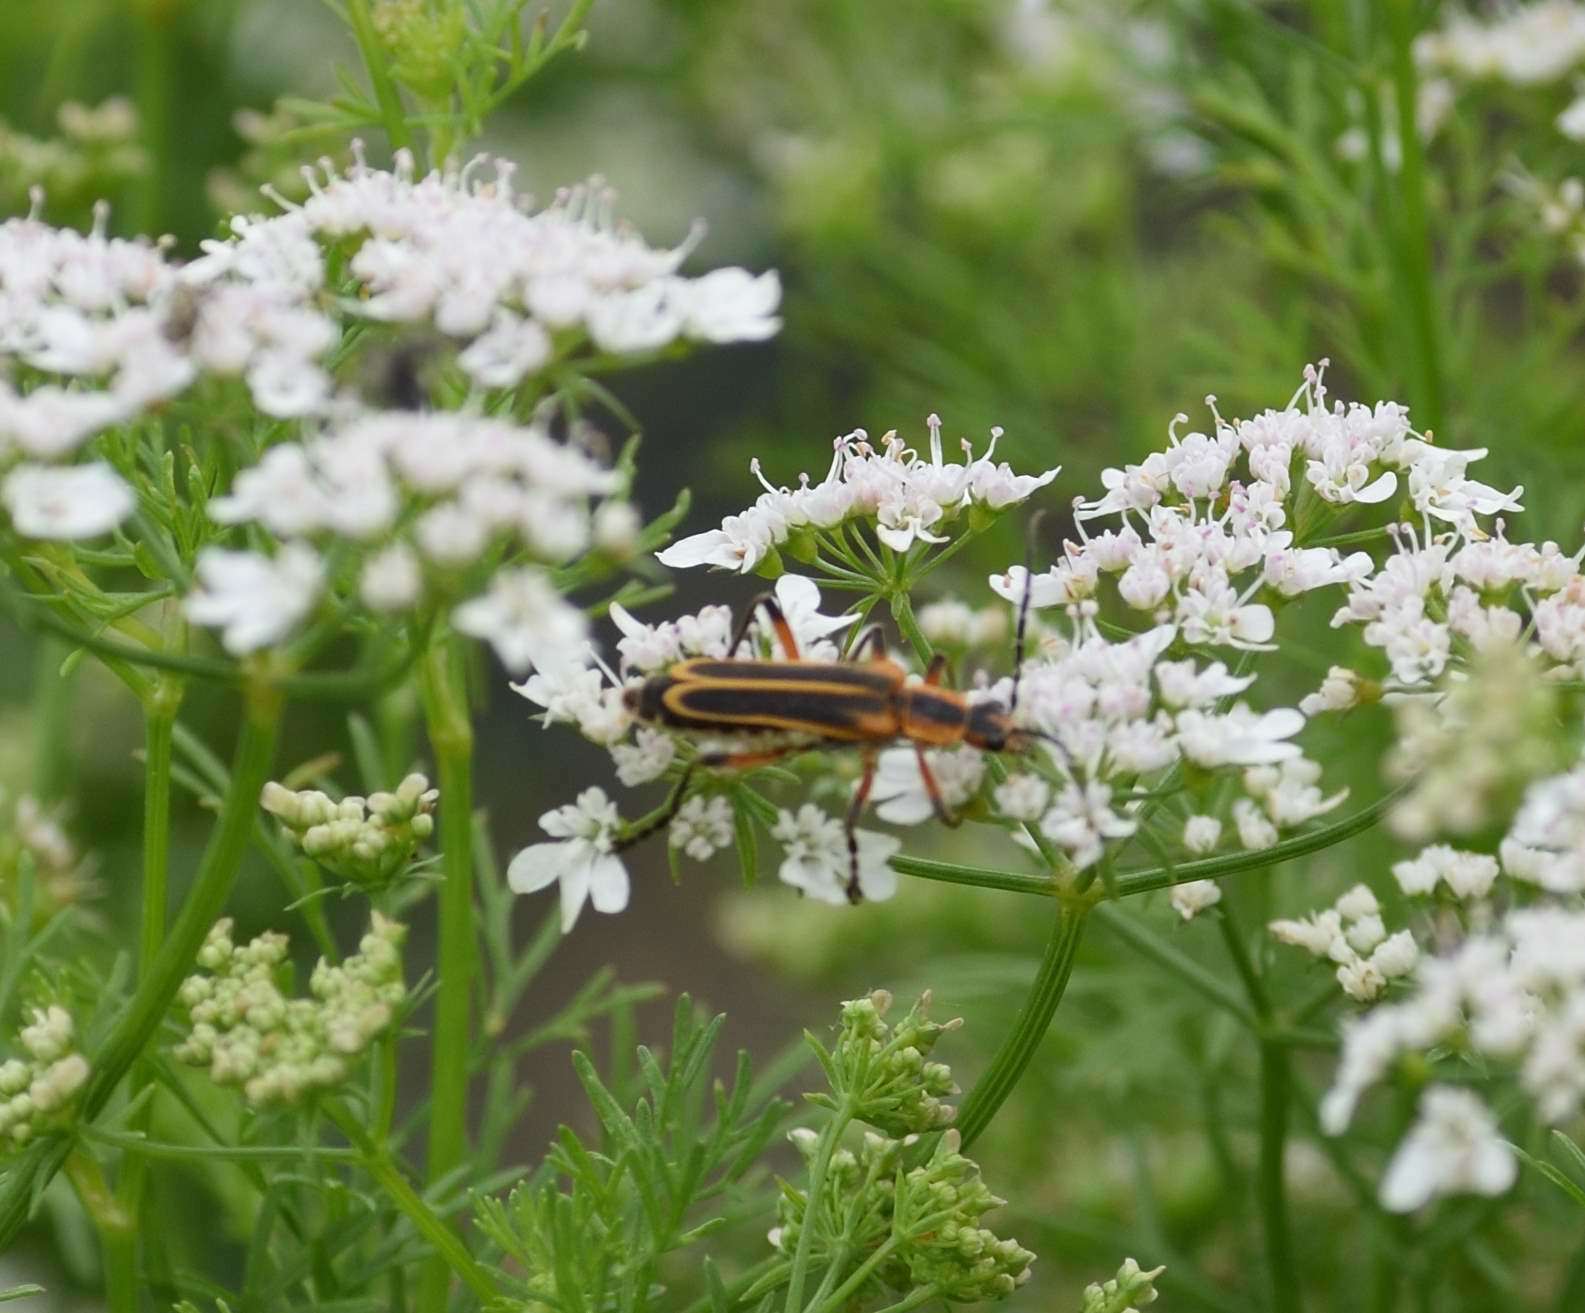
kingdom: Animalia
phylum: Arthropoda
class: Insecta
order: Coleoptera
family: Cantharidae
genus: Chauliognathus
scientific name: Chauliognathus marginatus
